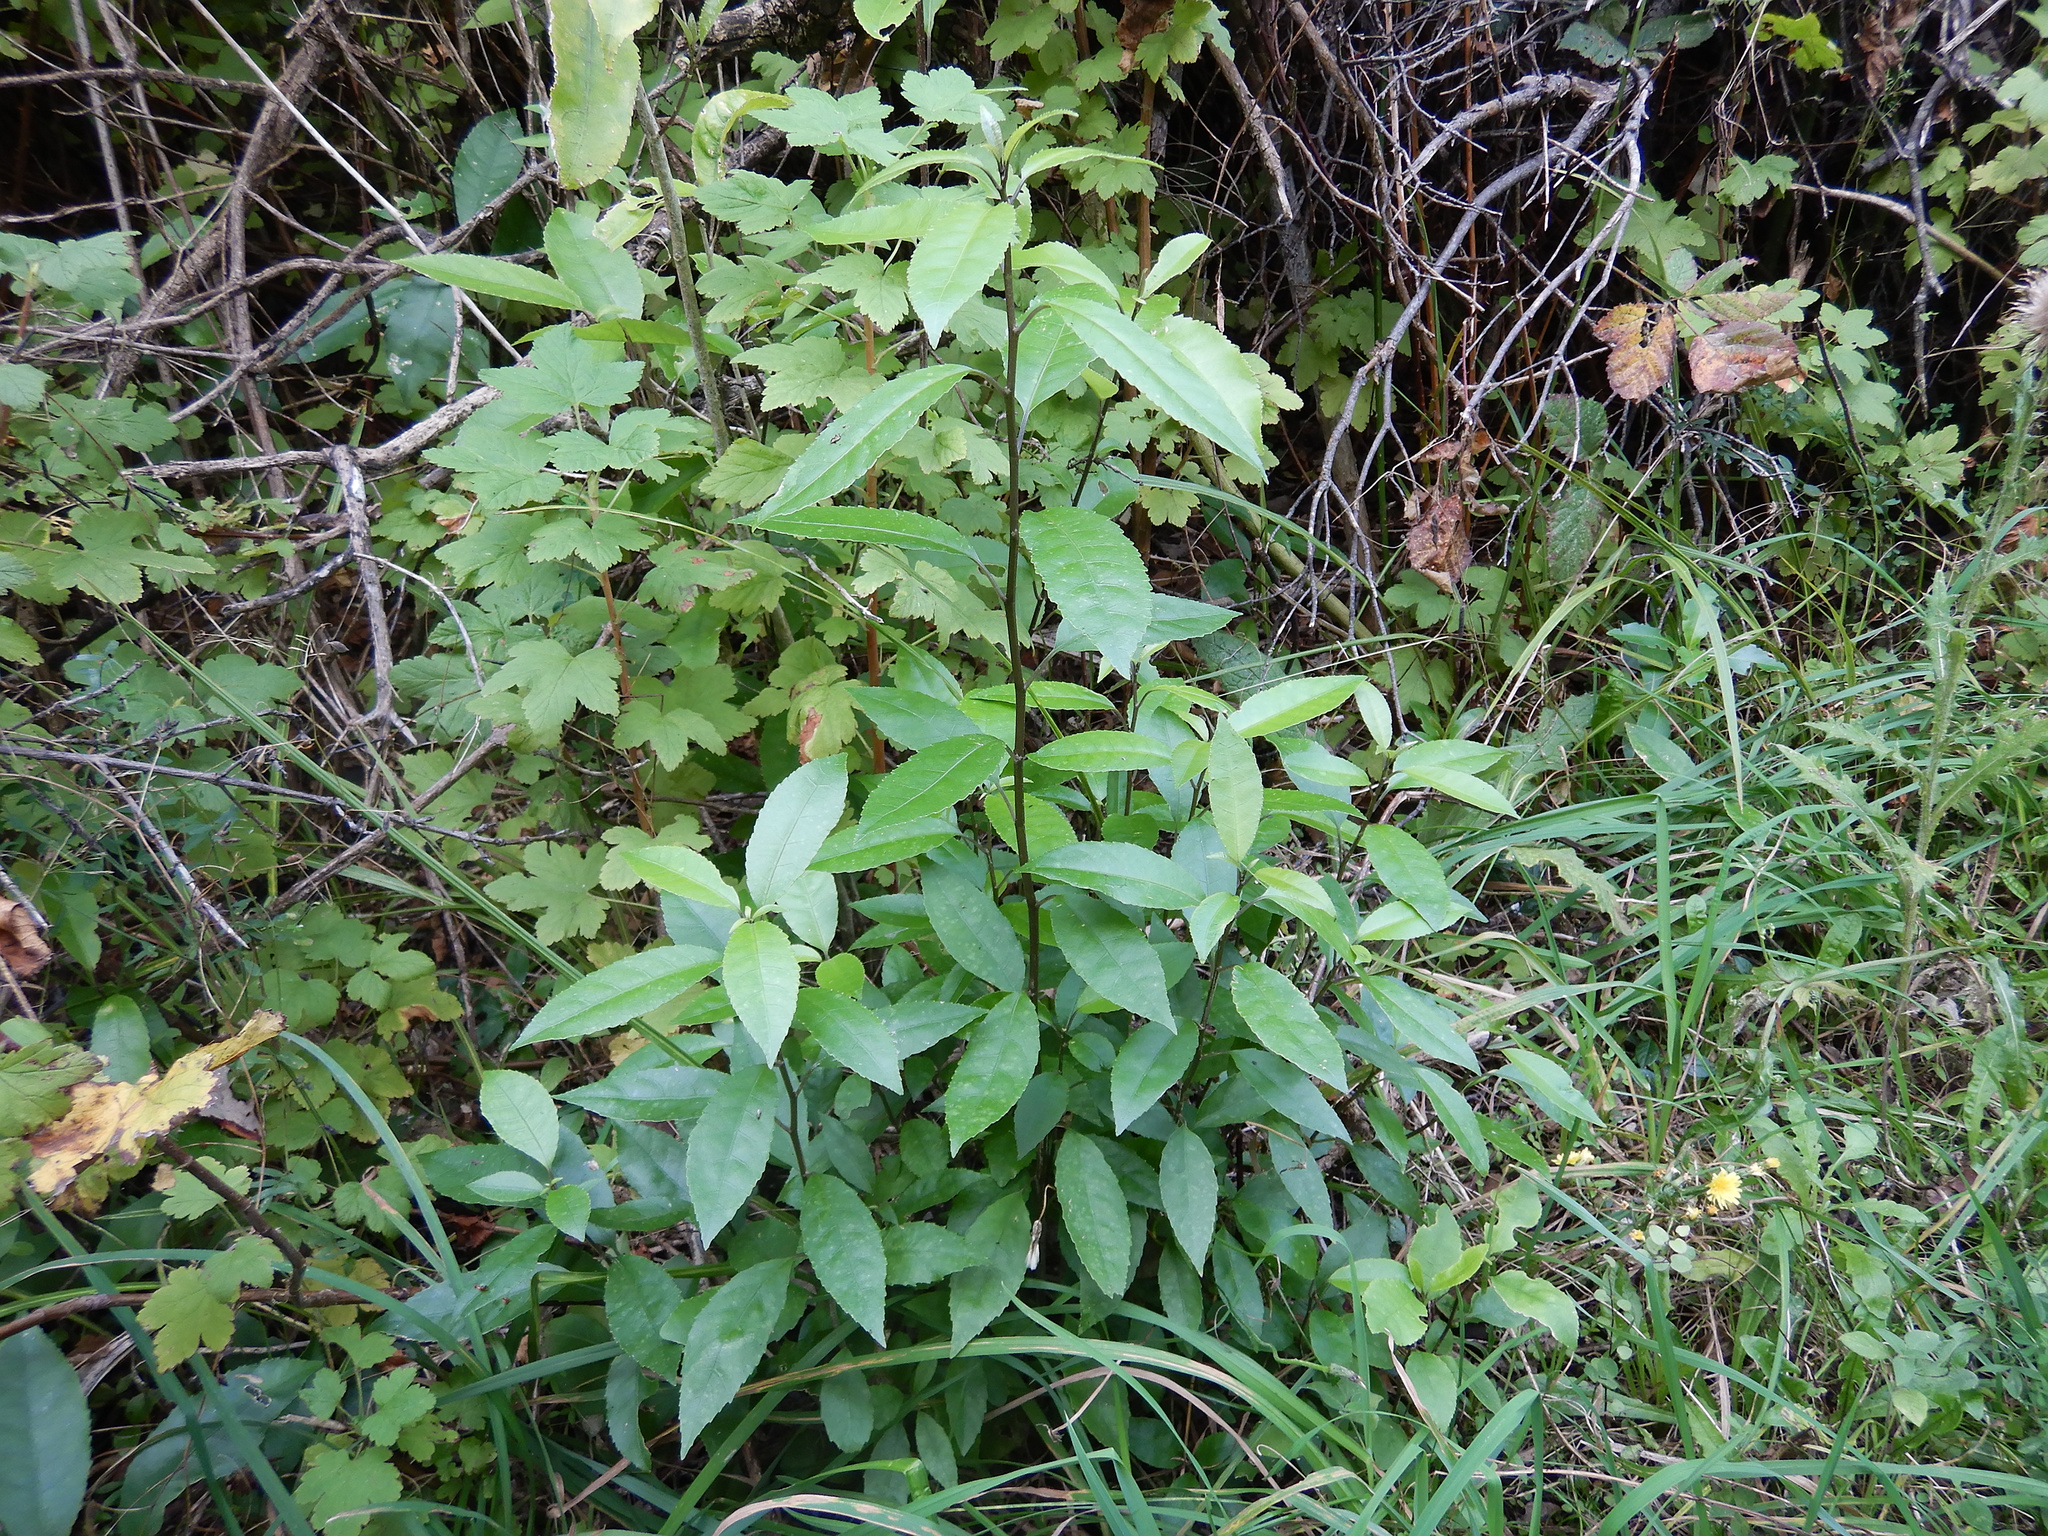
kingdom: Plantae
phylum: Tracheophyta
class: Magnoliopsida
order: Malpighiales
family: Violaceae
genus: Melicytus
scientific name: Melicytus ramiflorus
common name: Mahoe
